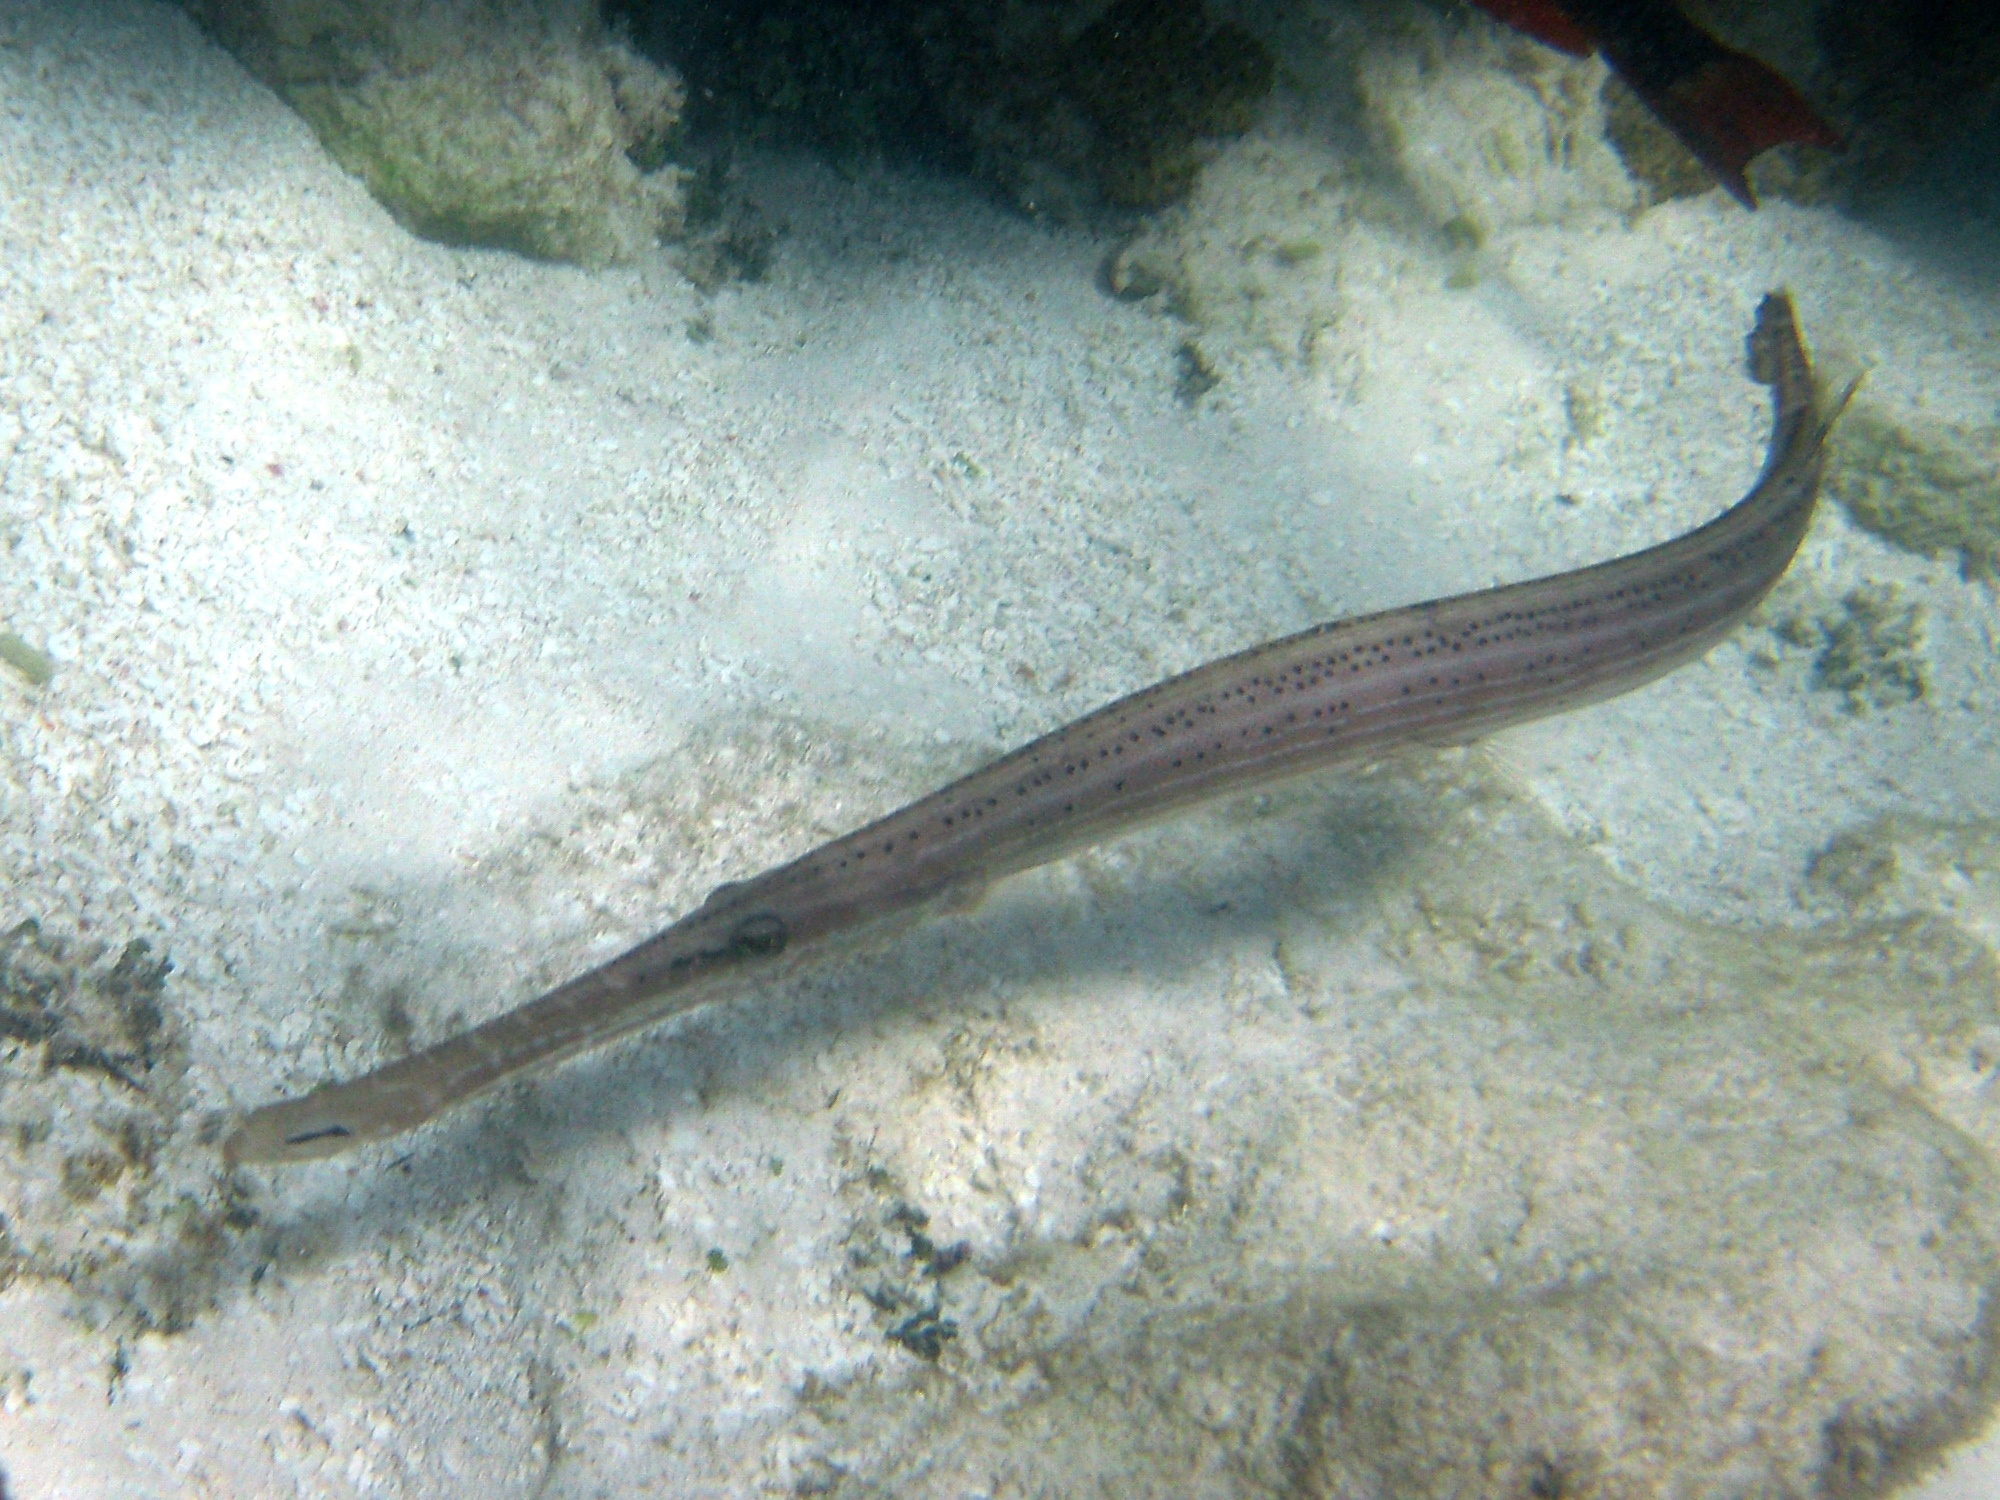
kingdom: Animalia
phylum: Chordata
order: Syngnathiformes
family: Aulostomidae
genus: Aulostomus
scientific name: Aulostomus maculatus
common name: West atlantic trumpetfish
